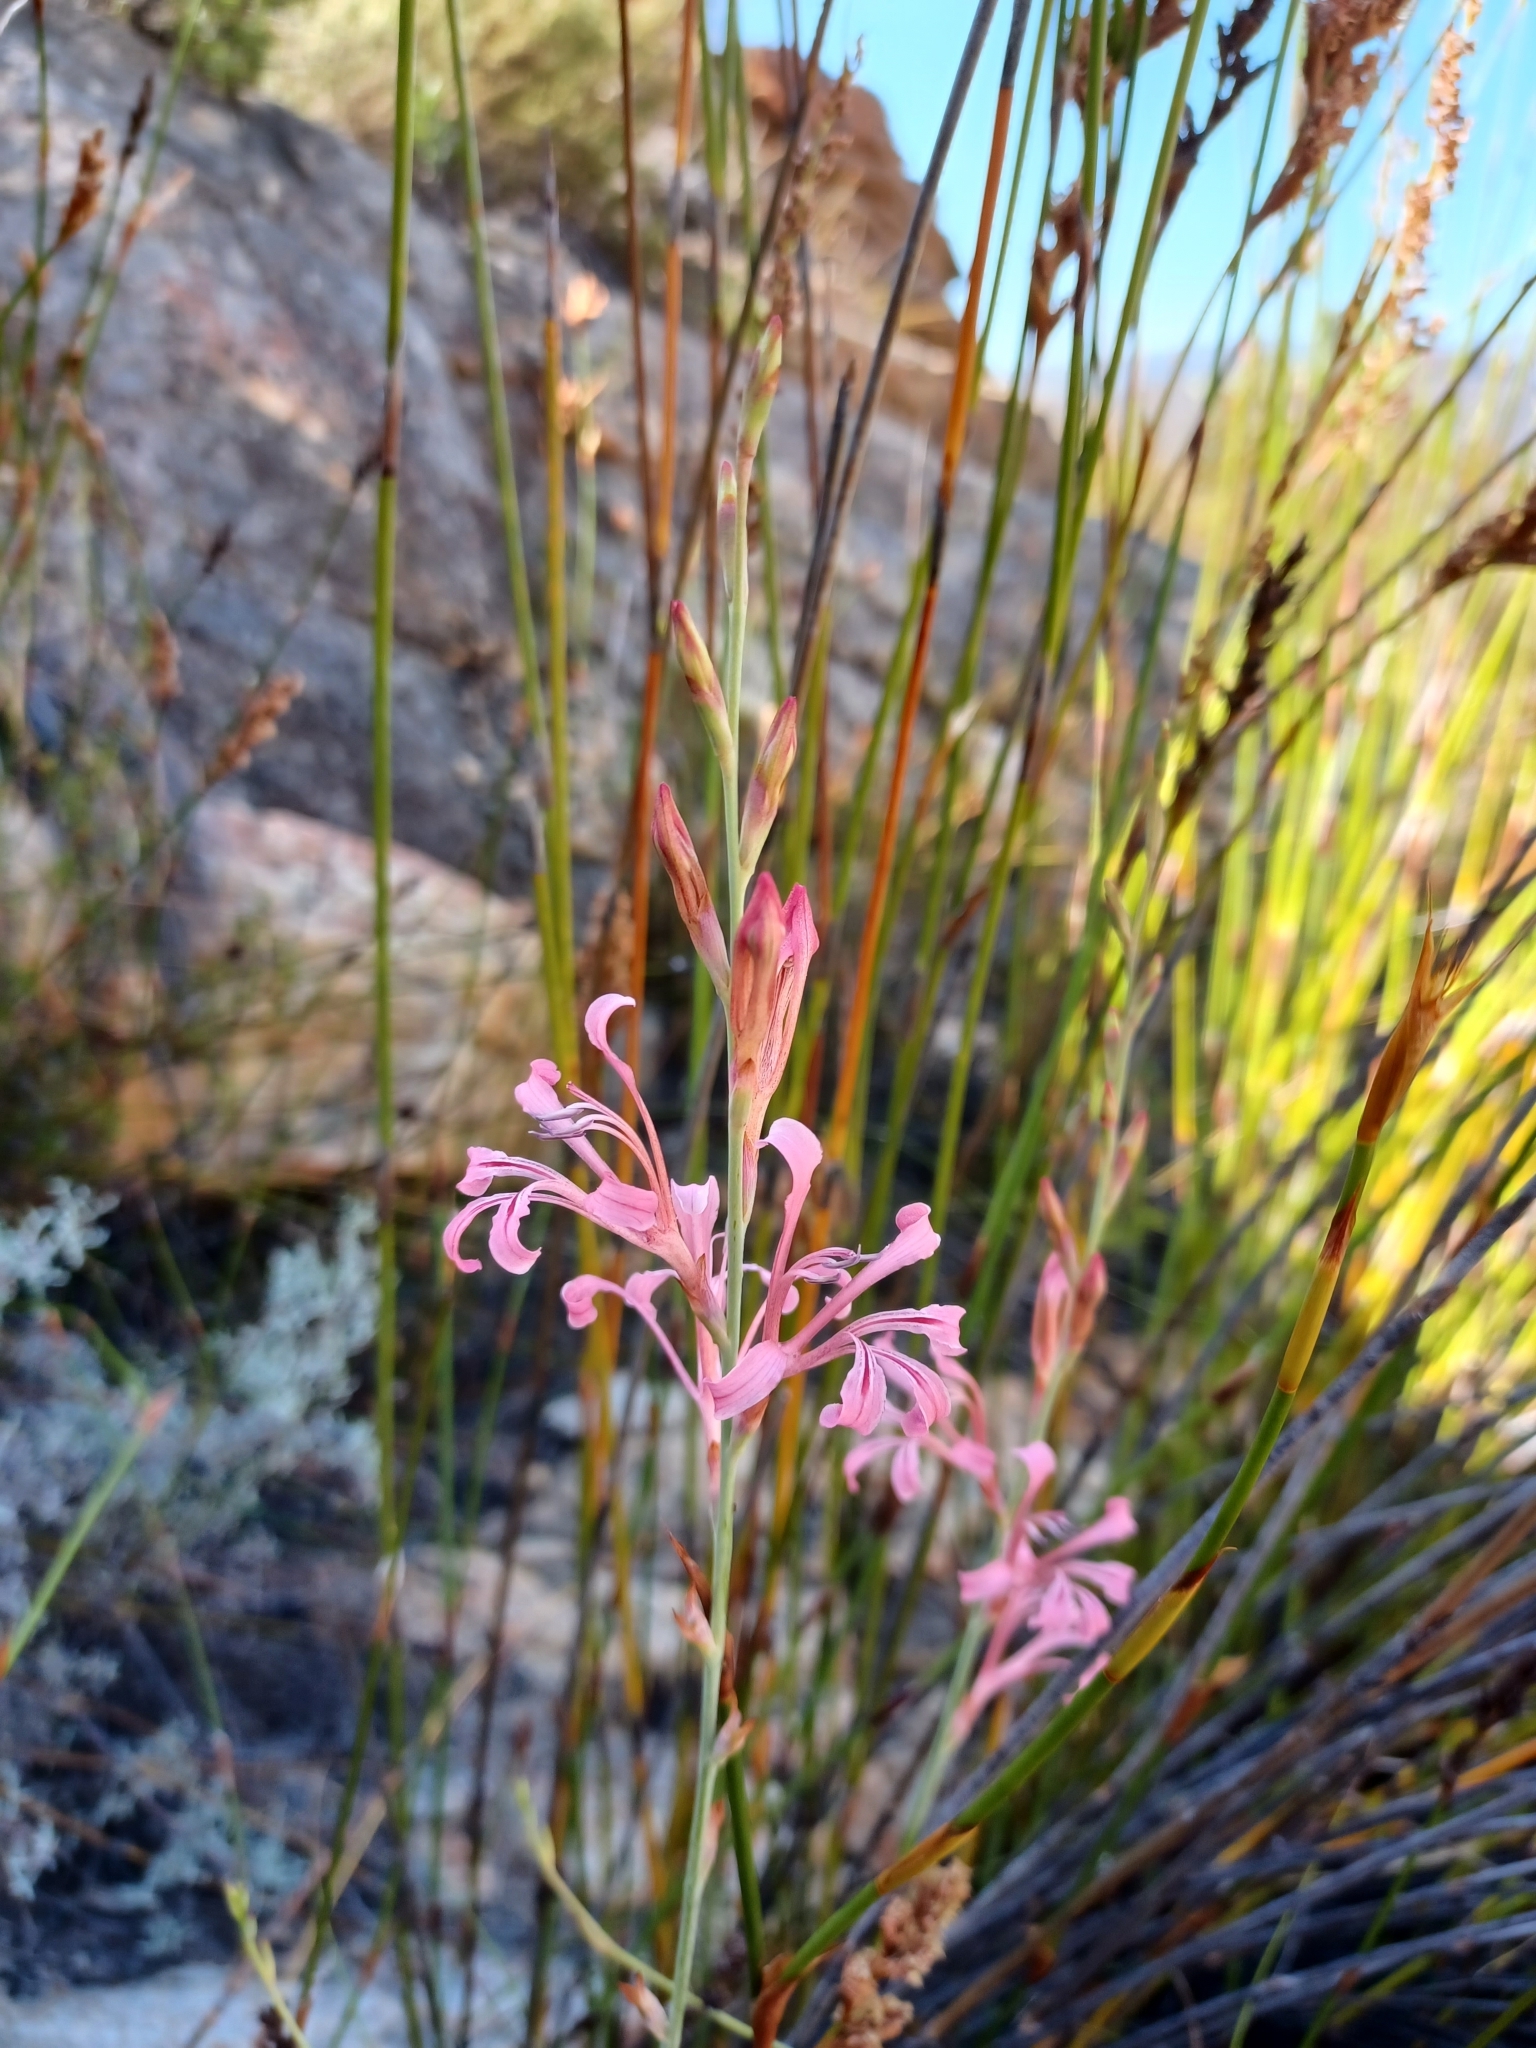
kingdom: Plantae
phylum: Tracheophyta
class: Liliopsida
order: Asparagales
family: Iridaceae
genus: Tritoniopsis
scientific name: Tritoniopsis ramosa
